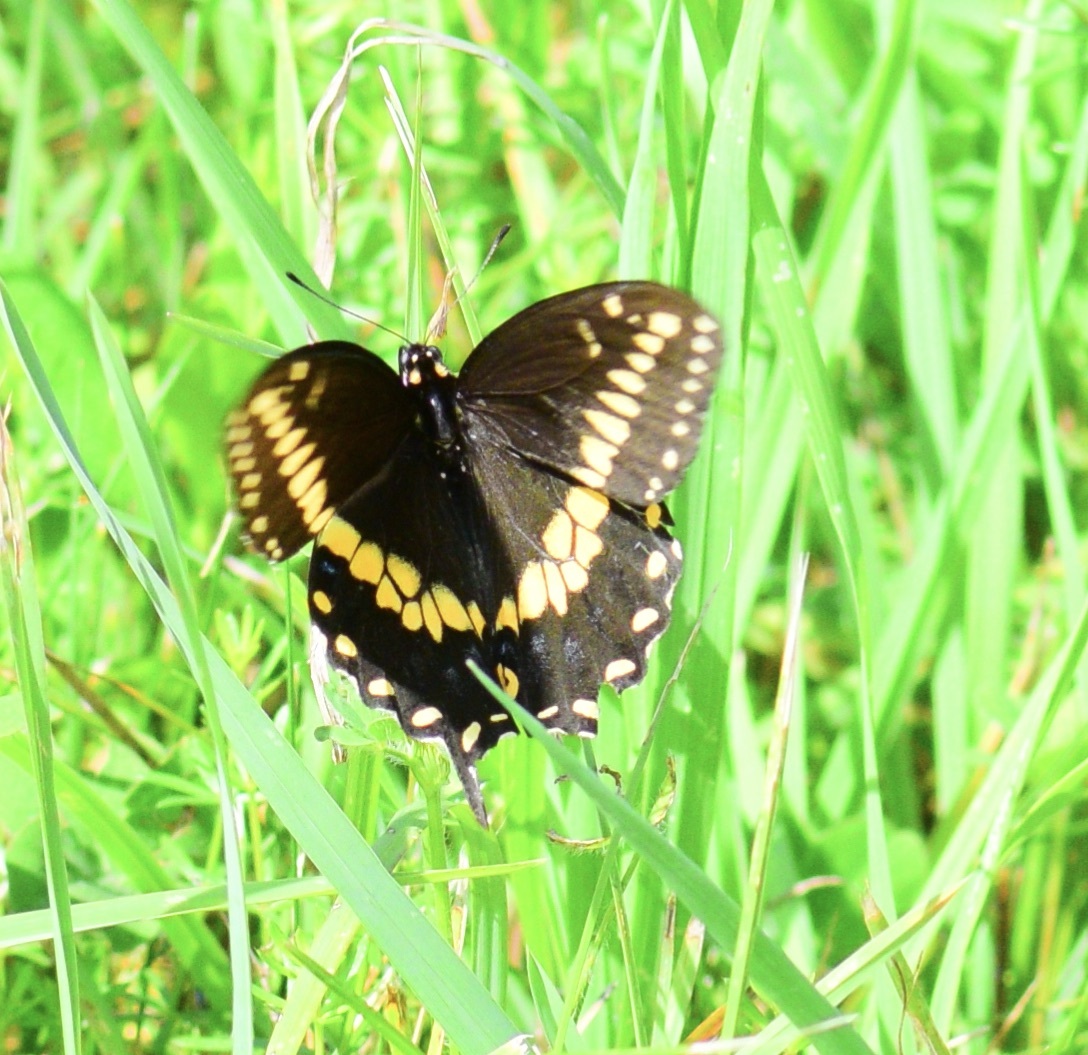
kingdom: Animalia
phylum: Arthropoda
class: Insecta
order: Lepidoptera
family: Papilionidae
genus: Papilio
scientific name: Papilio polyxenes
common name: Black swallowtail
